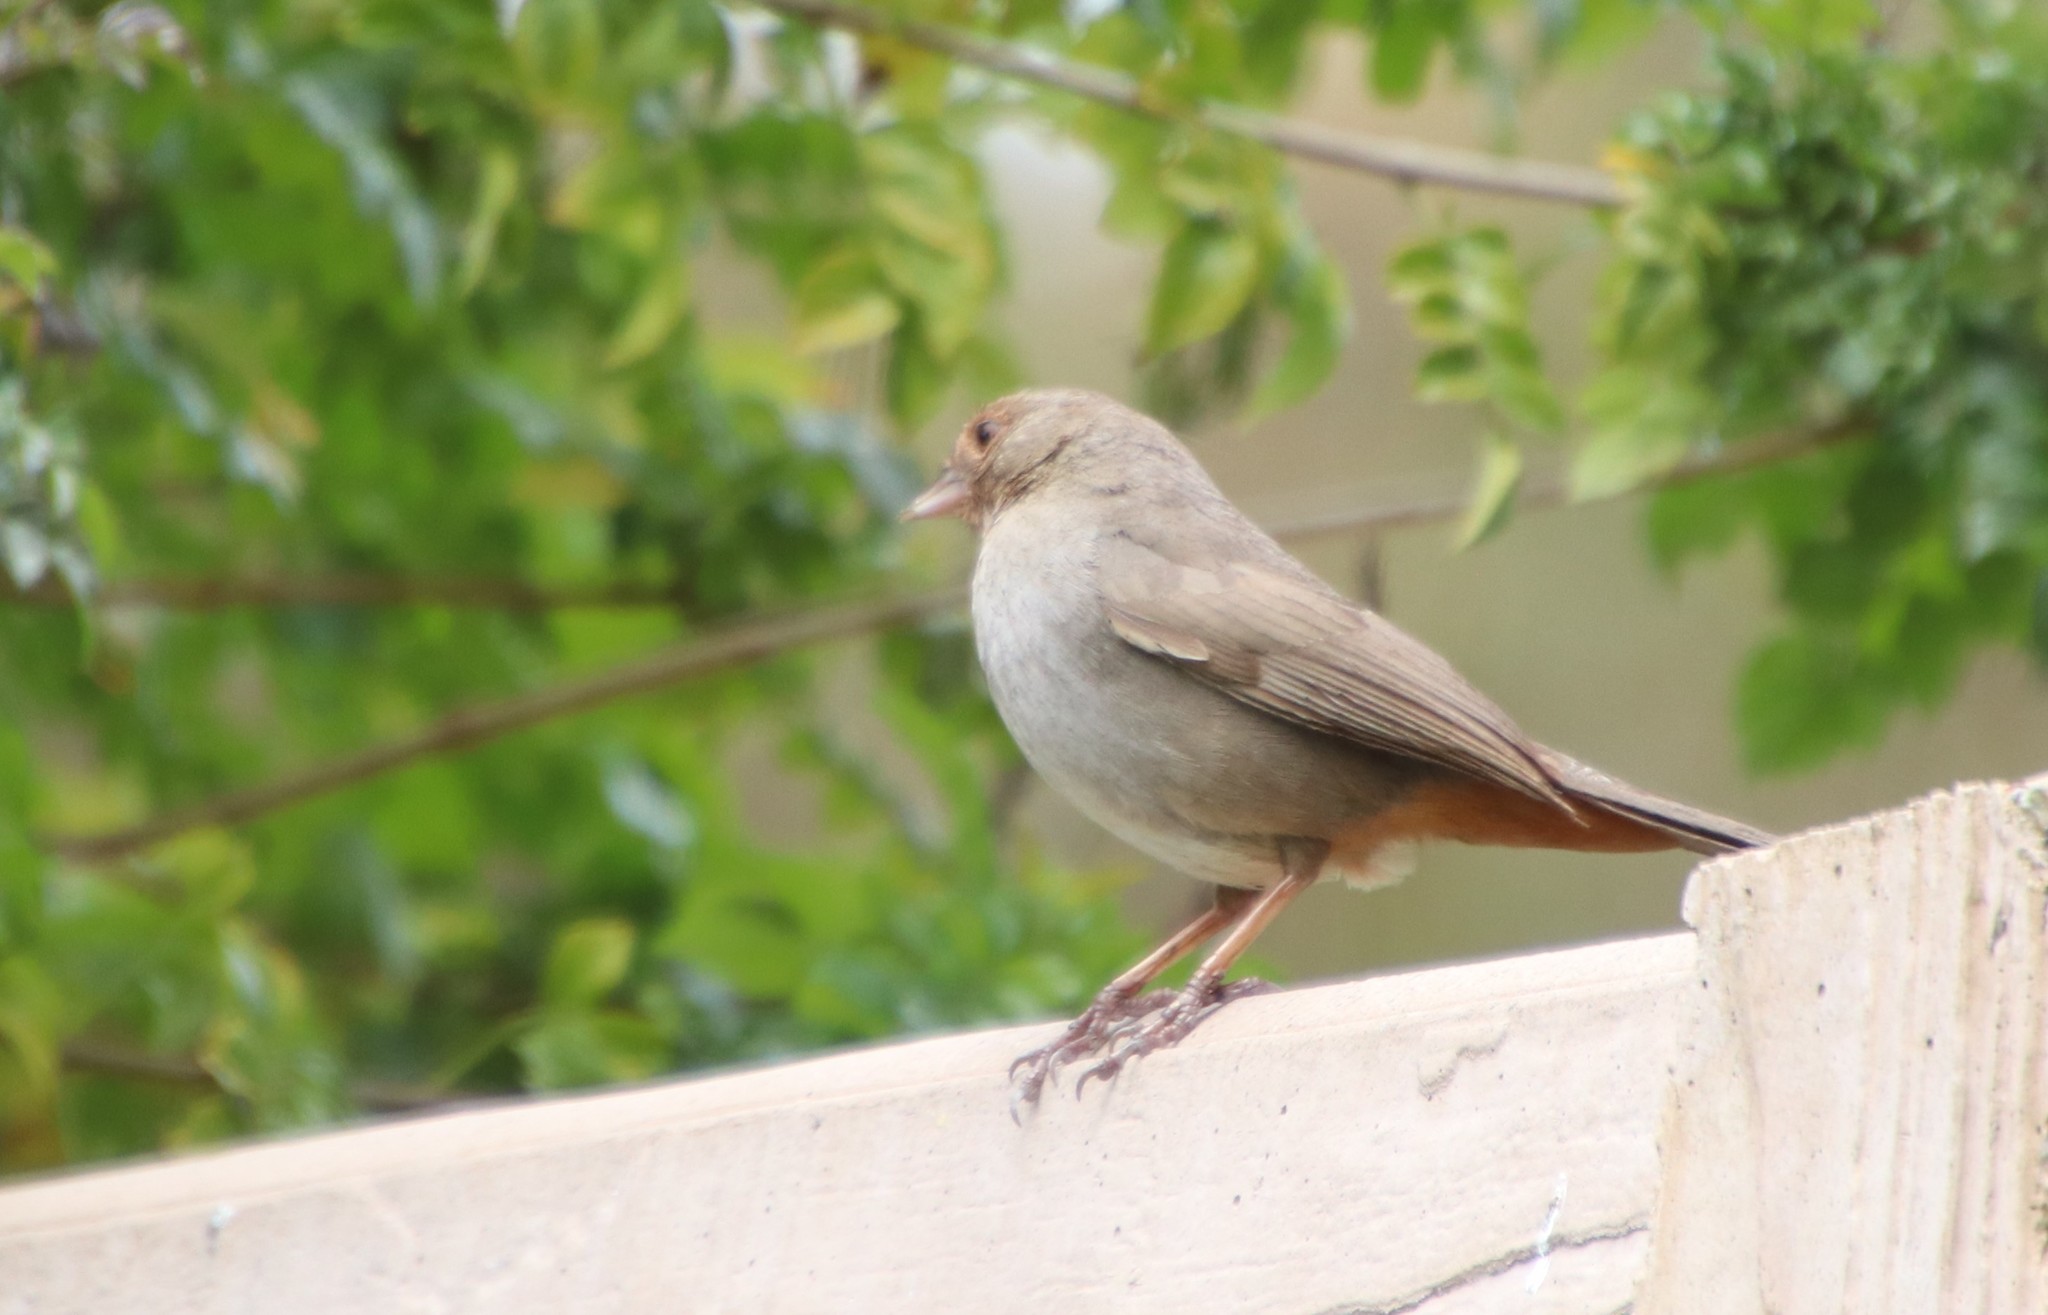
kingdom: Animalia
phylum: Chordata
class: Aves
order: Passeriformes
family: Passerellidae
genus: Melozone
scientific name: Melozone crissalis
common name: California towhee
